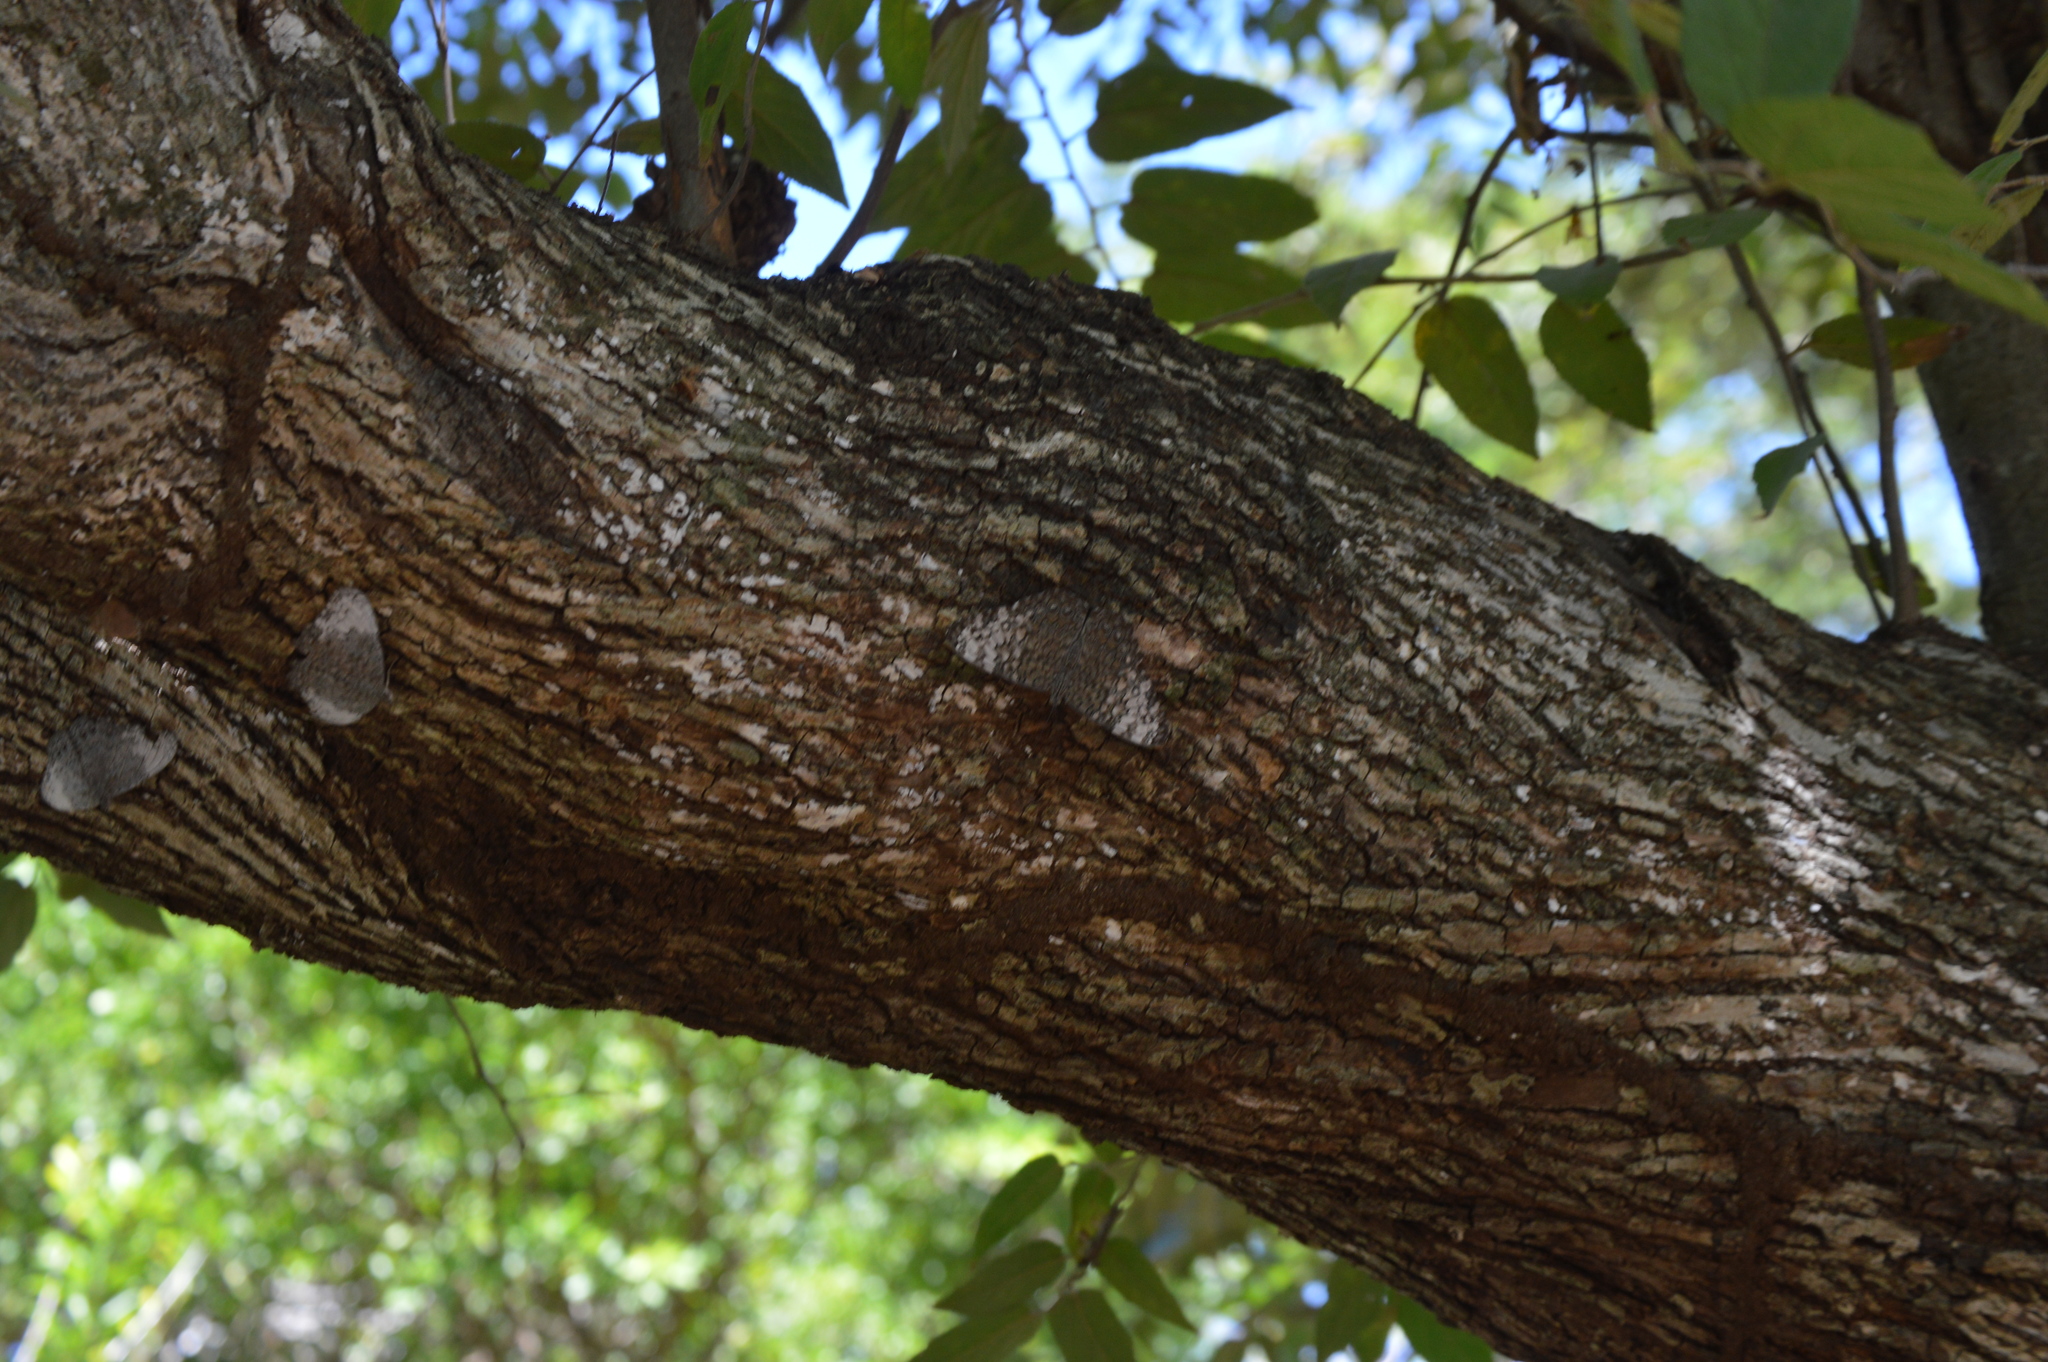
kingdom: Animalia
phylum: Arthropoda
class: Insecta
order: Lepidoptera
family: Nymphalidae
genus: Hamadryas
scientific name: Hamadryas glauconome
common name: Glaucous cracker
